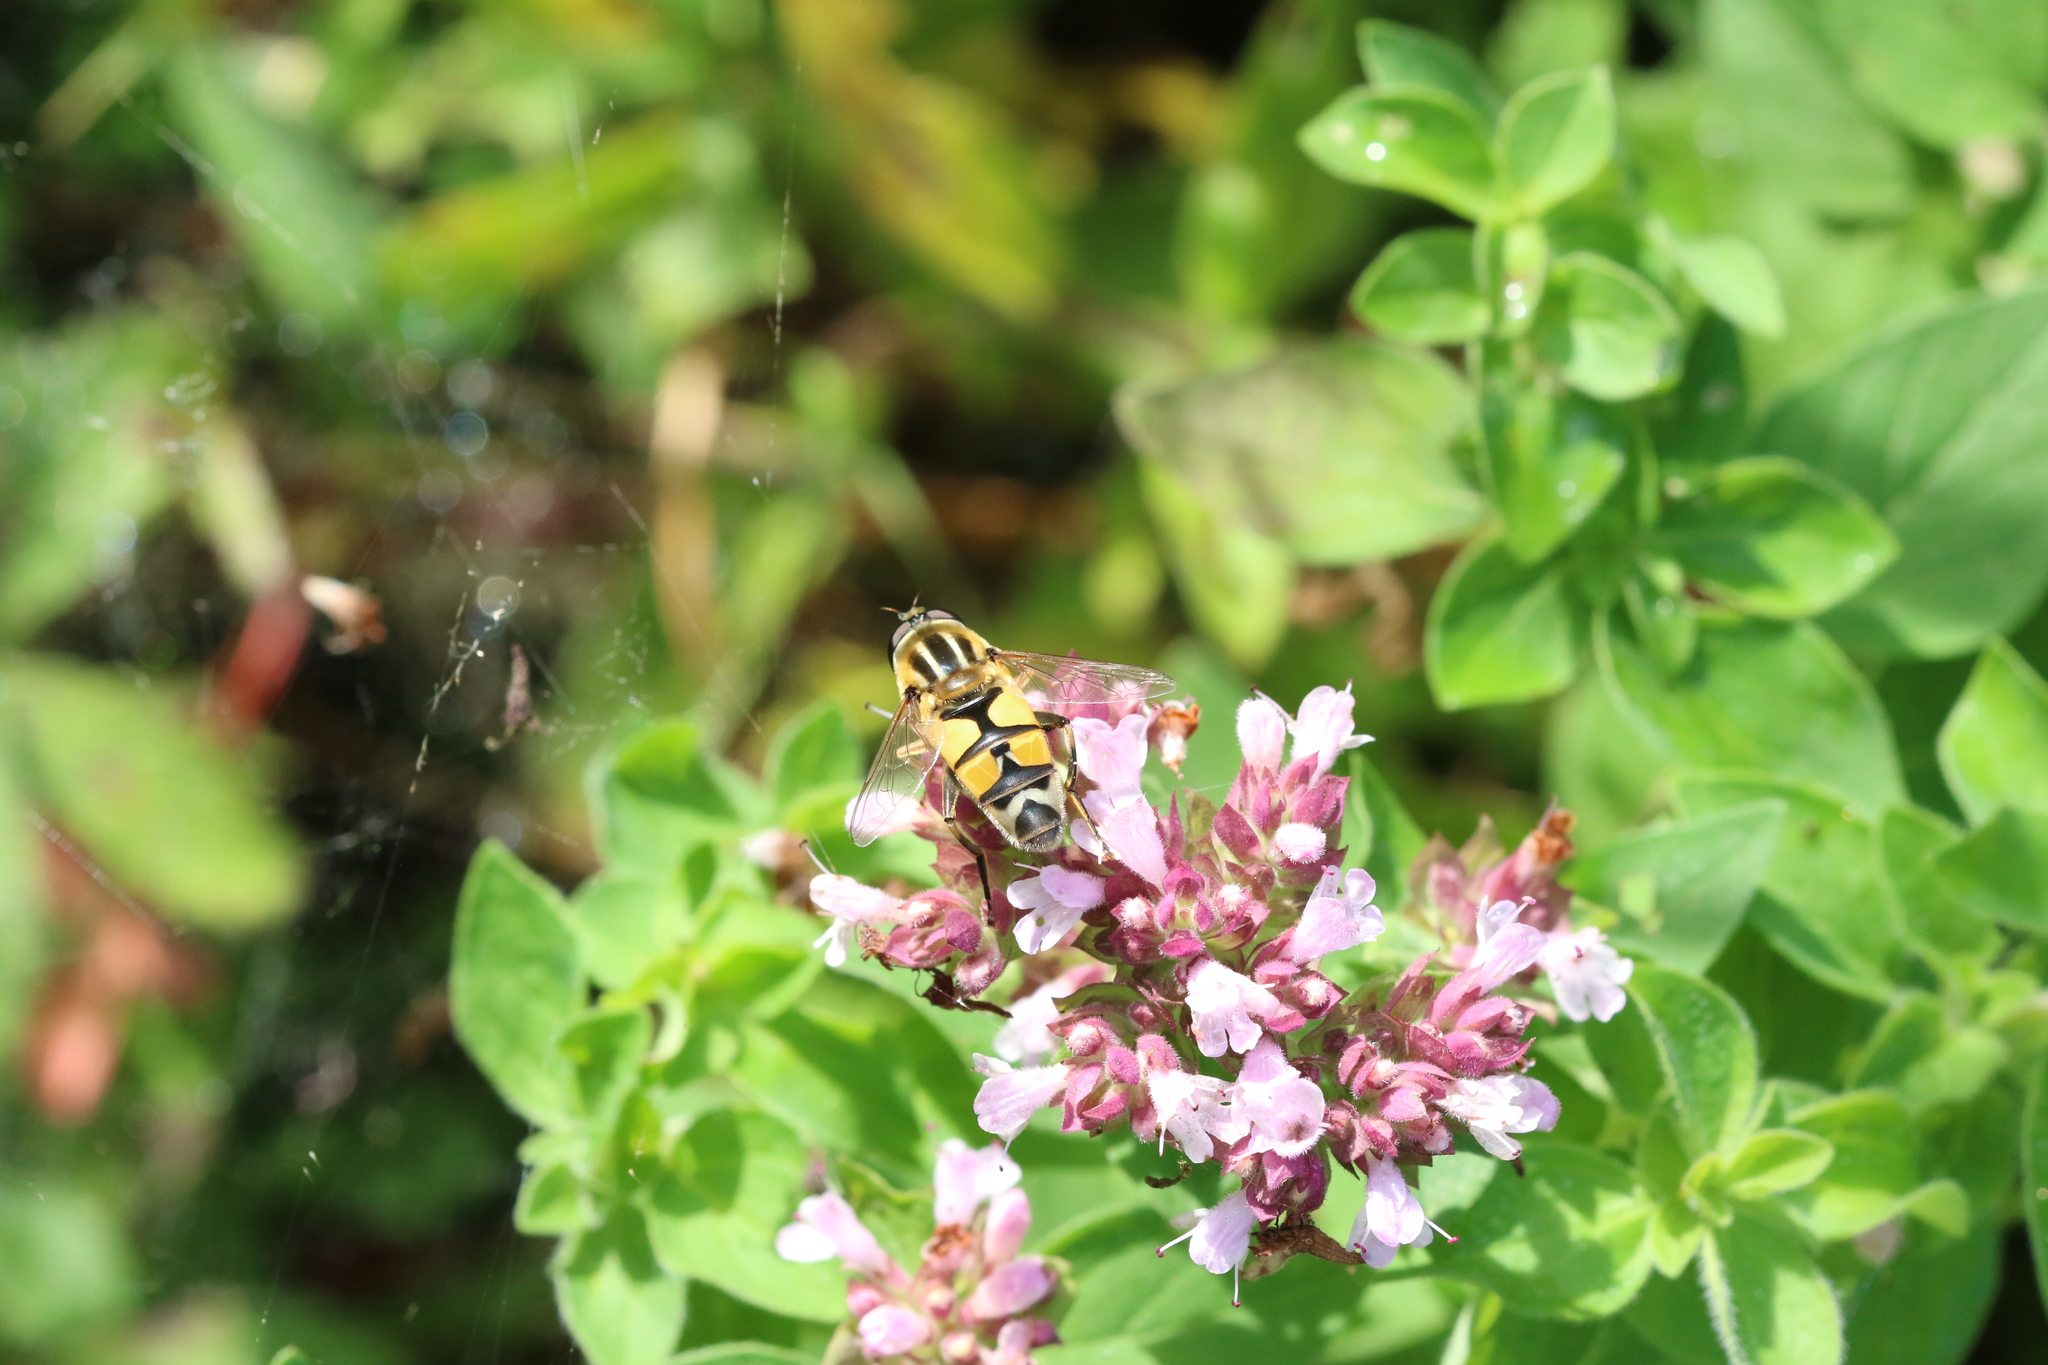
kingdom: Animalia
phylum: Arthropoda
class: Insecta
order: Diptera
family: Syrphidae
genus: Helophilus
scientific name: Helophilus trivittatus
